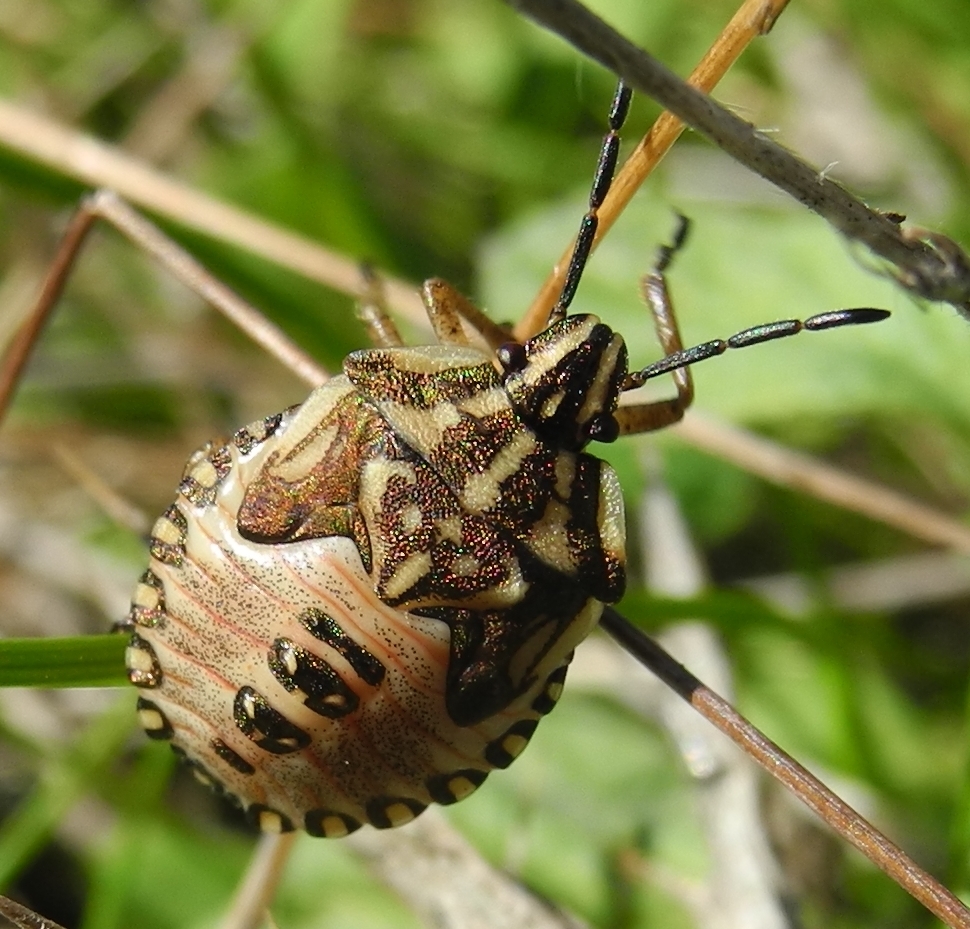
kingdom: Animalia
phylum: Arthropoda
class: Insecta
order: Hemiptera
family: Pentatomidae
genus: Carpocoris
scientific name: Carpocoris mediterraneus
